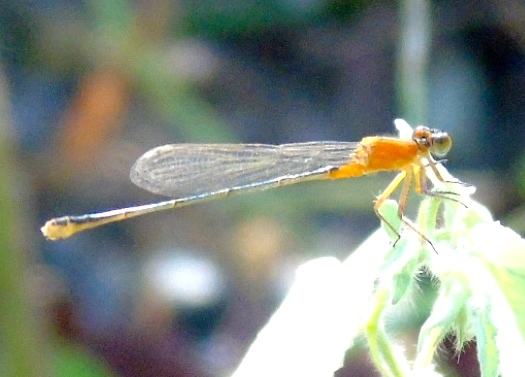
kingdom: Animalia
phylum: Arthropoda
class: Insecta
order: Odonata
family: Coenagrionidae
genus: Ischnura
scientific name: Ischnura
